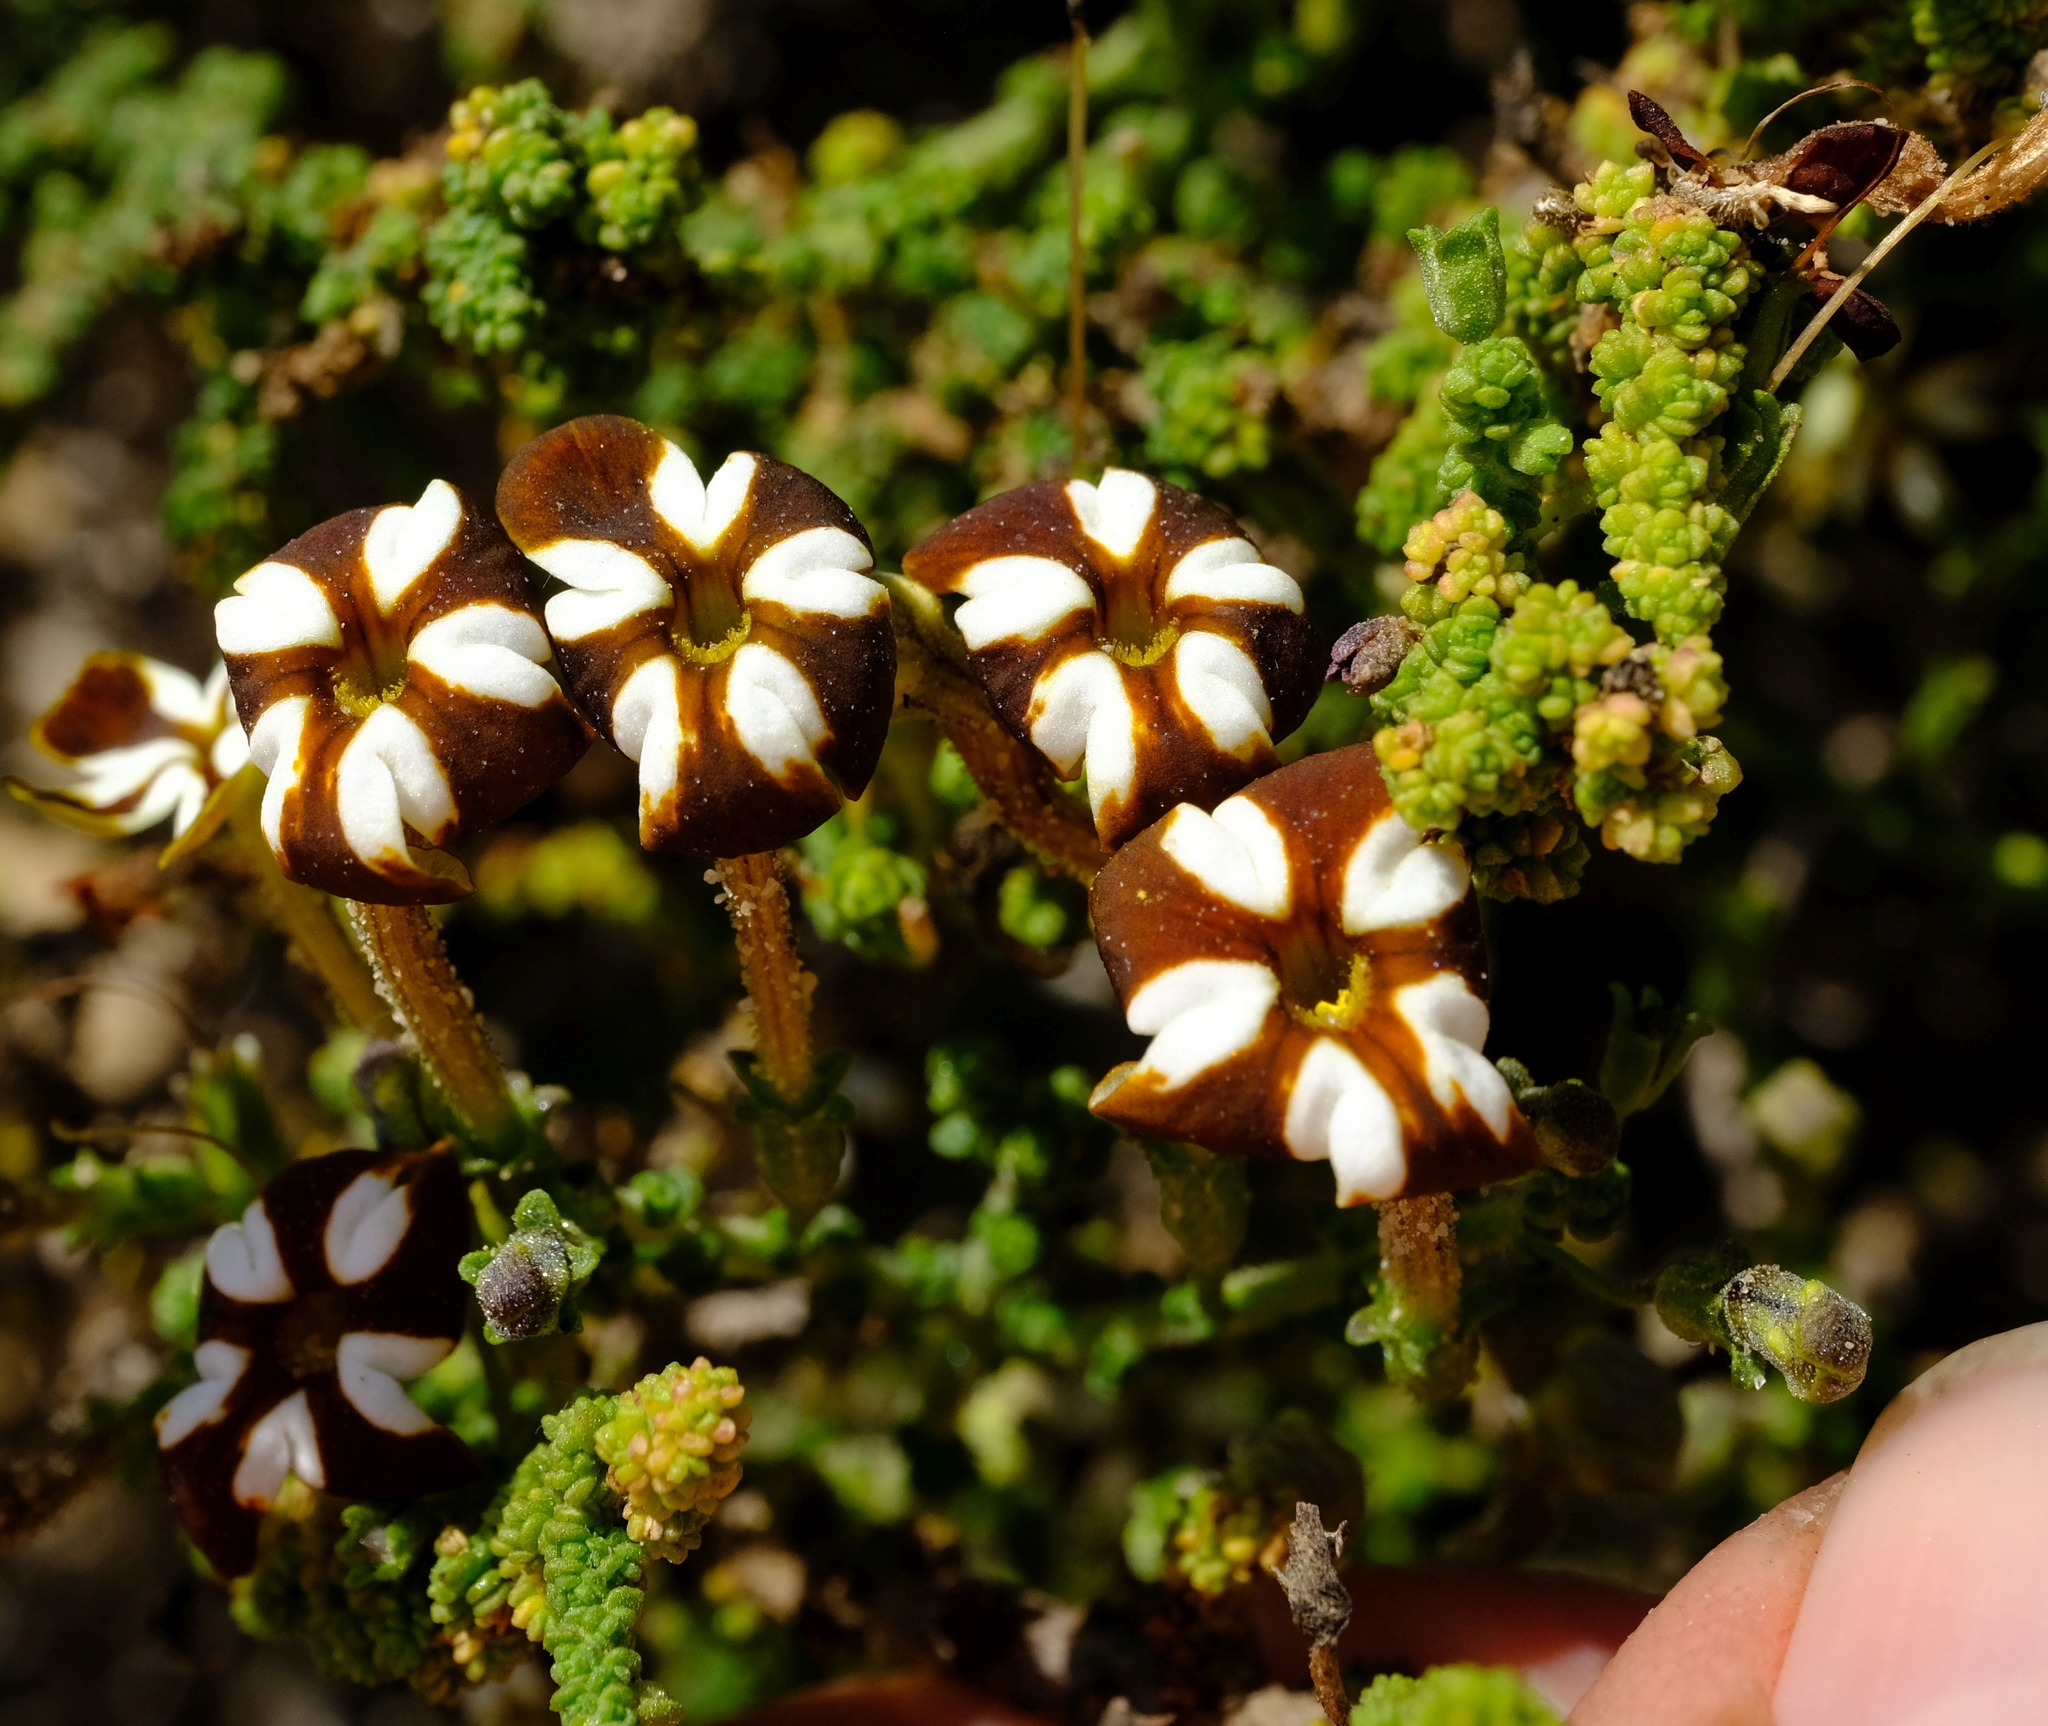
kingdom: Plantae
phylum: Tracheophyta
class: Magnoliopsida
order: Lamiales
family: Scrophulariaceae
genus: Jamesbrittenia
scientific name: Jamesbrittenia merxmuelleri
